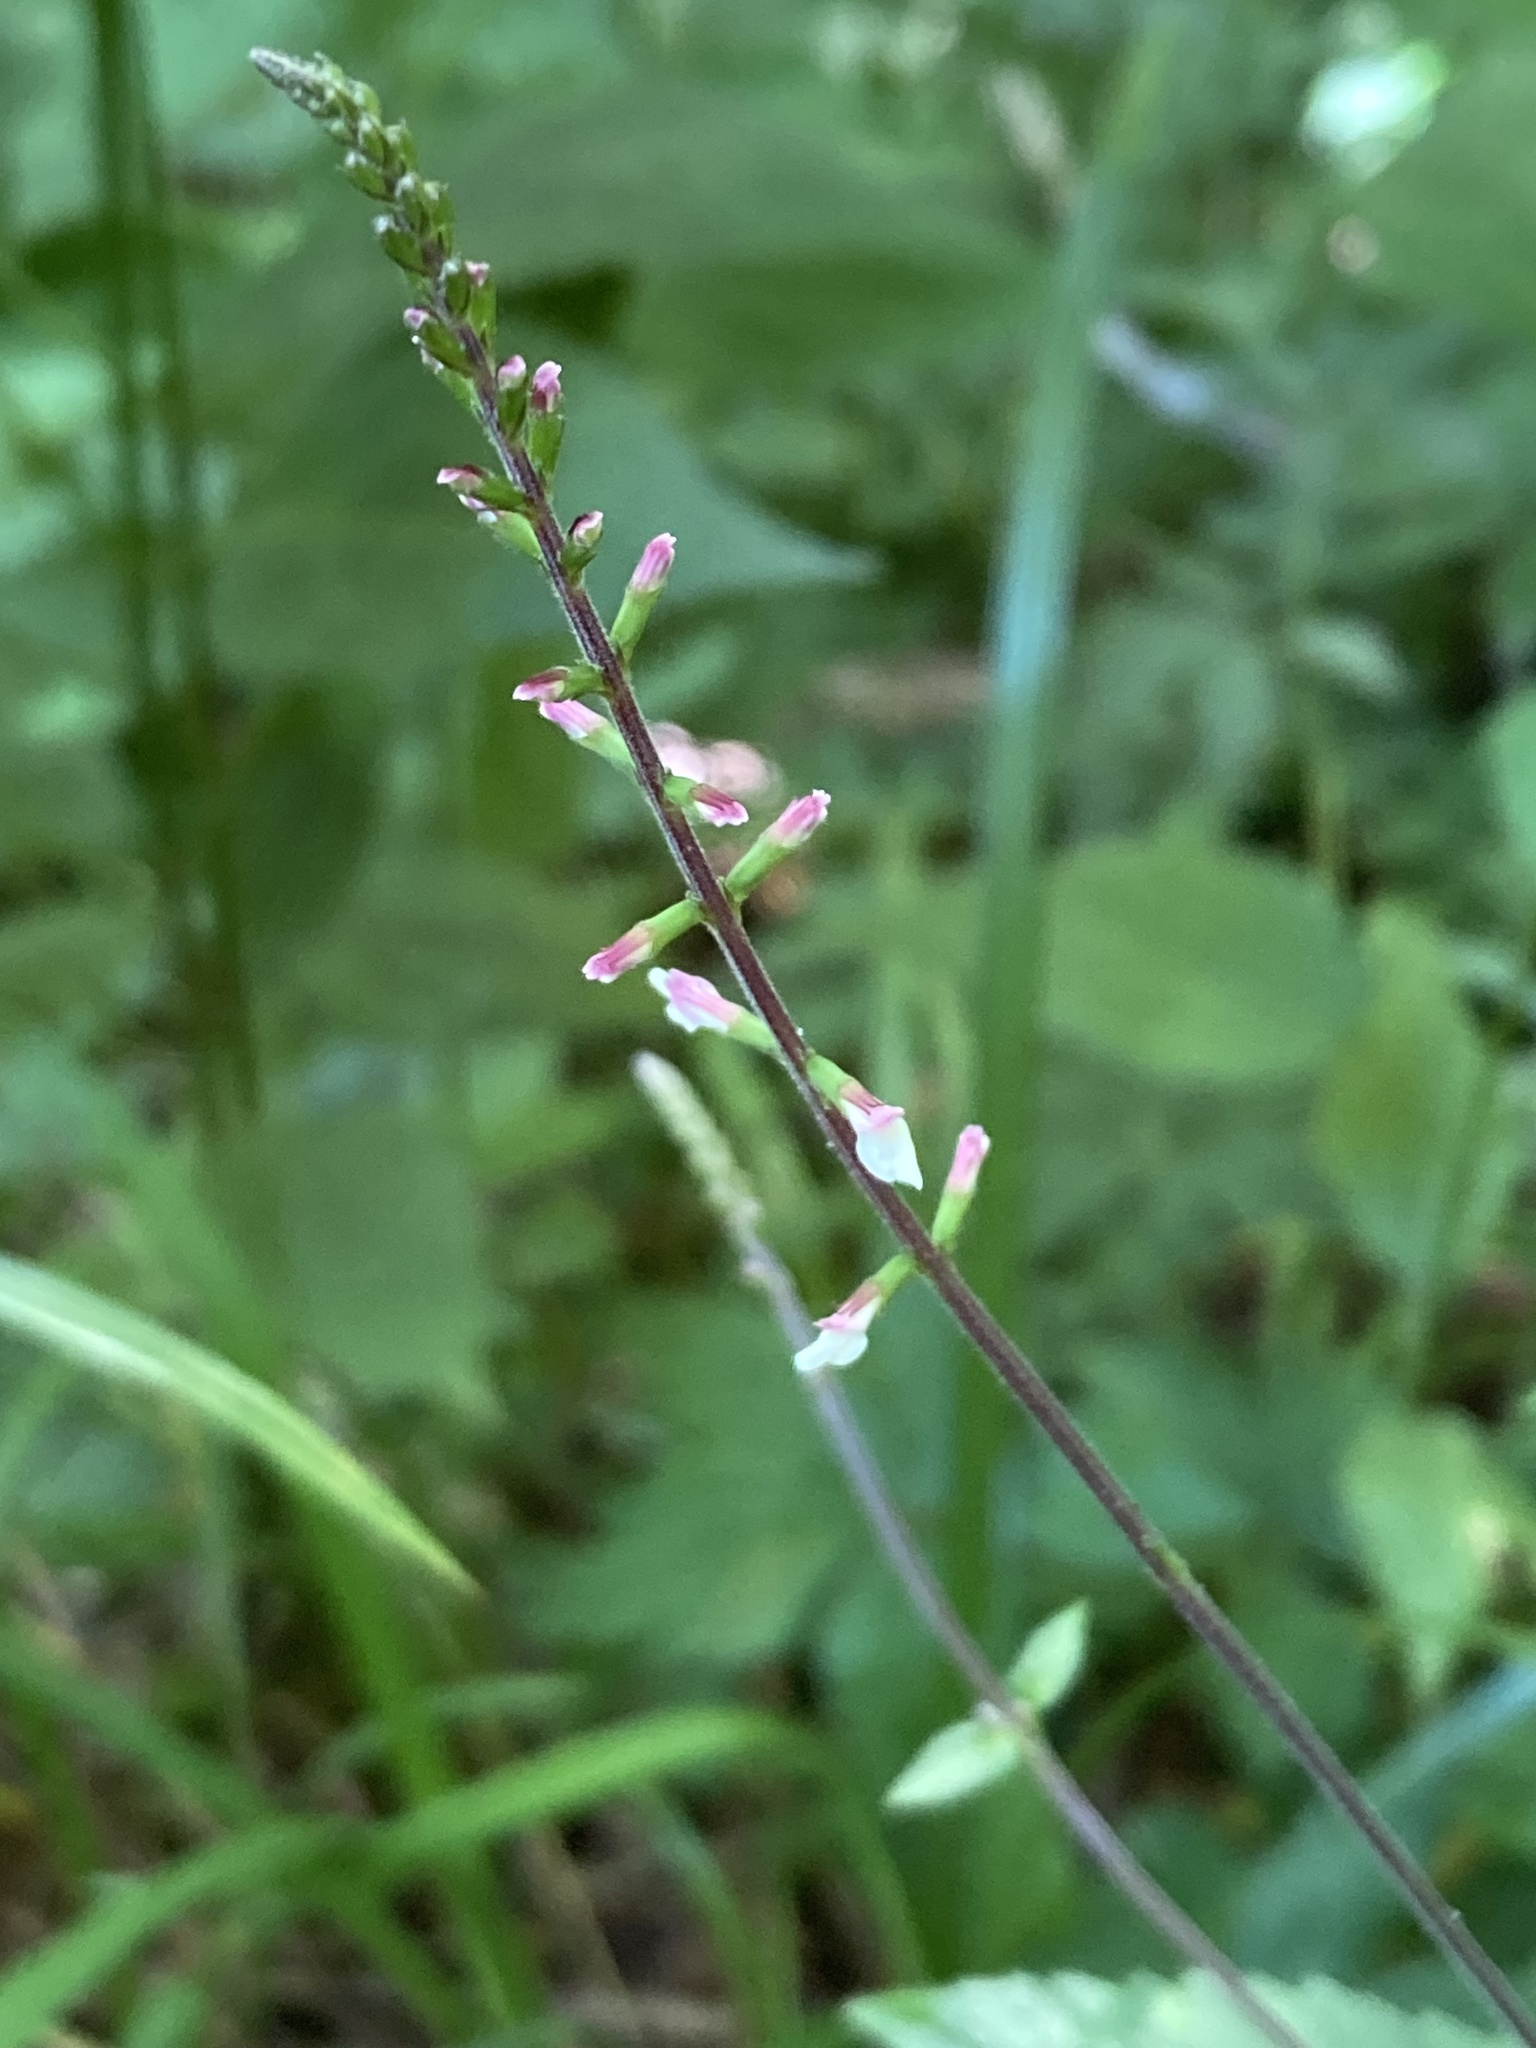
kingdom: Plantae
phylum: Tracheophyta
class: Magnoliopsida
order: Lamiales
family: Phrymaceae
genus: Phryma
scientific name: Phryma leptostachya
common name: American lopseed
